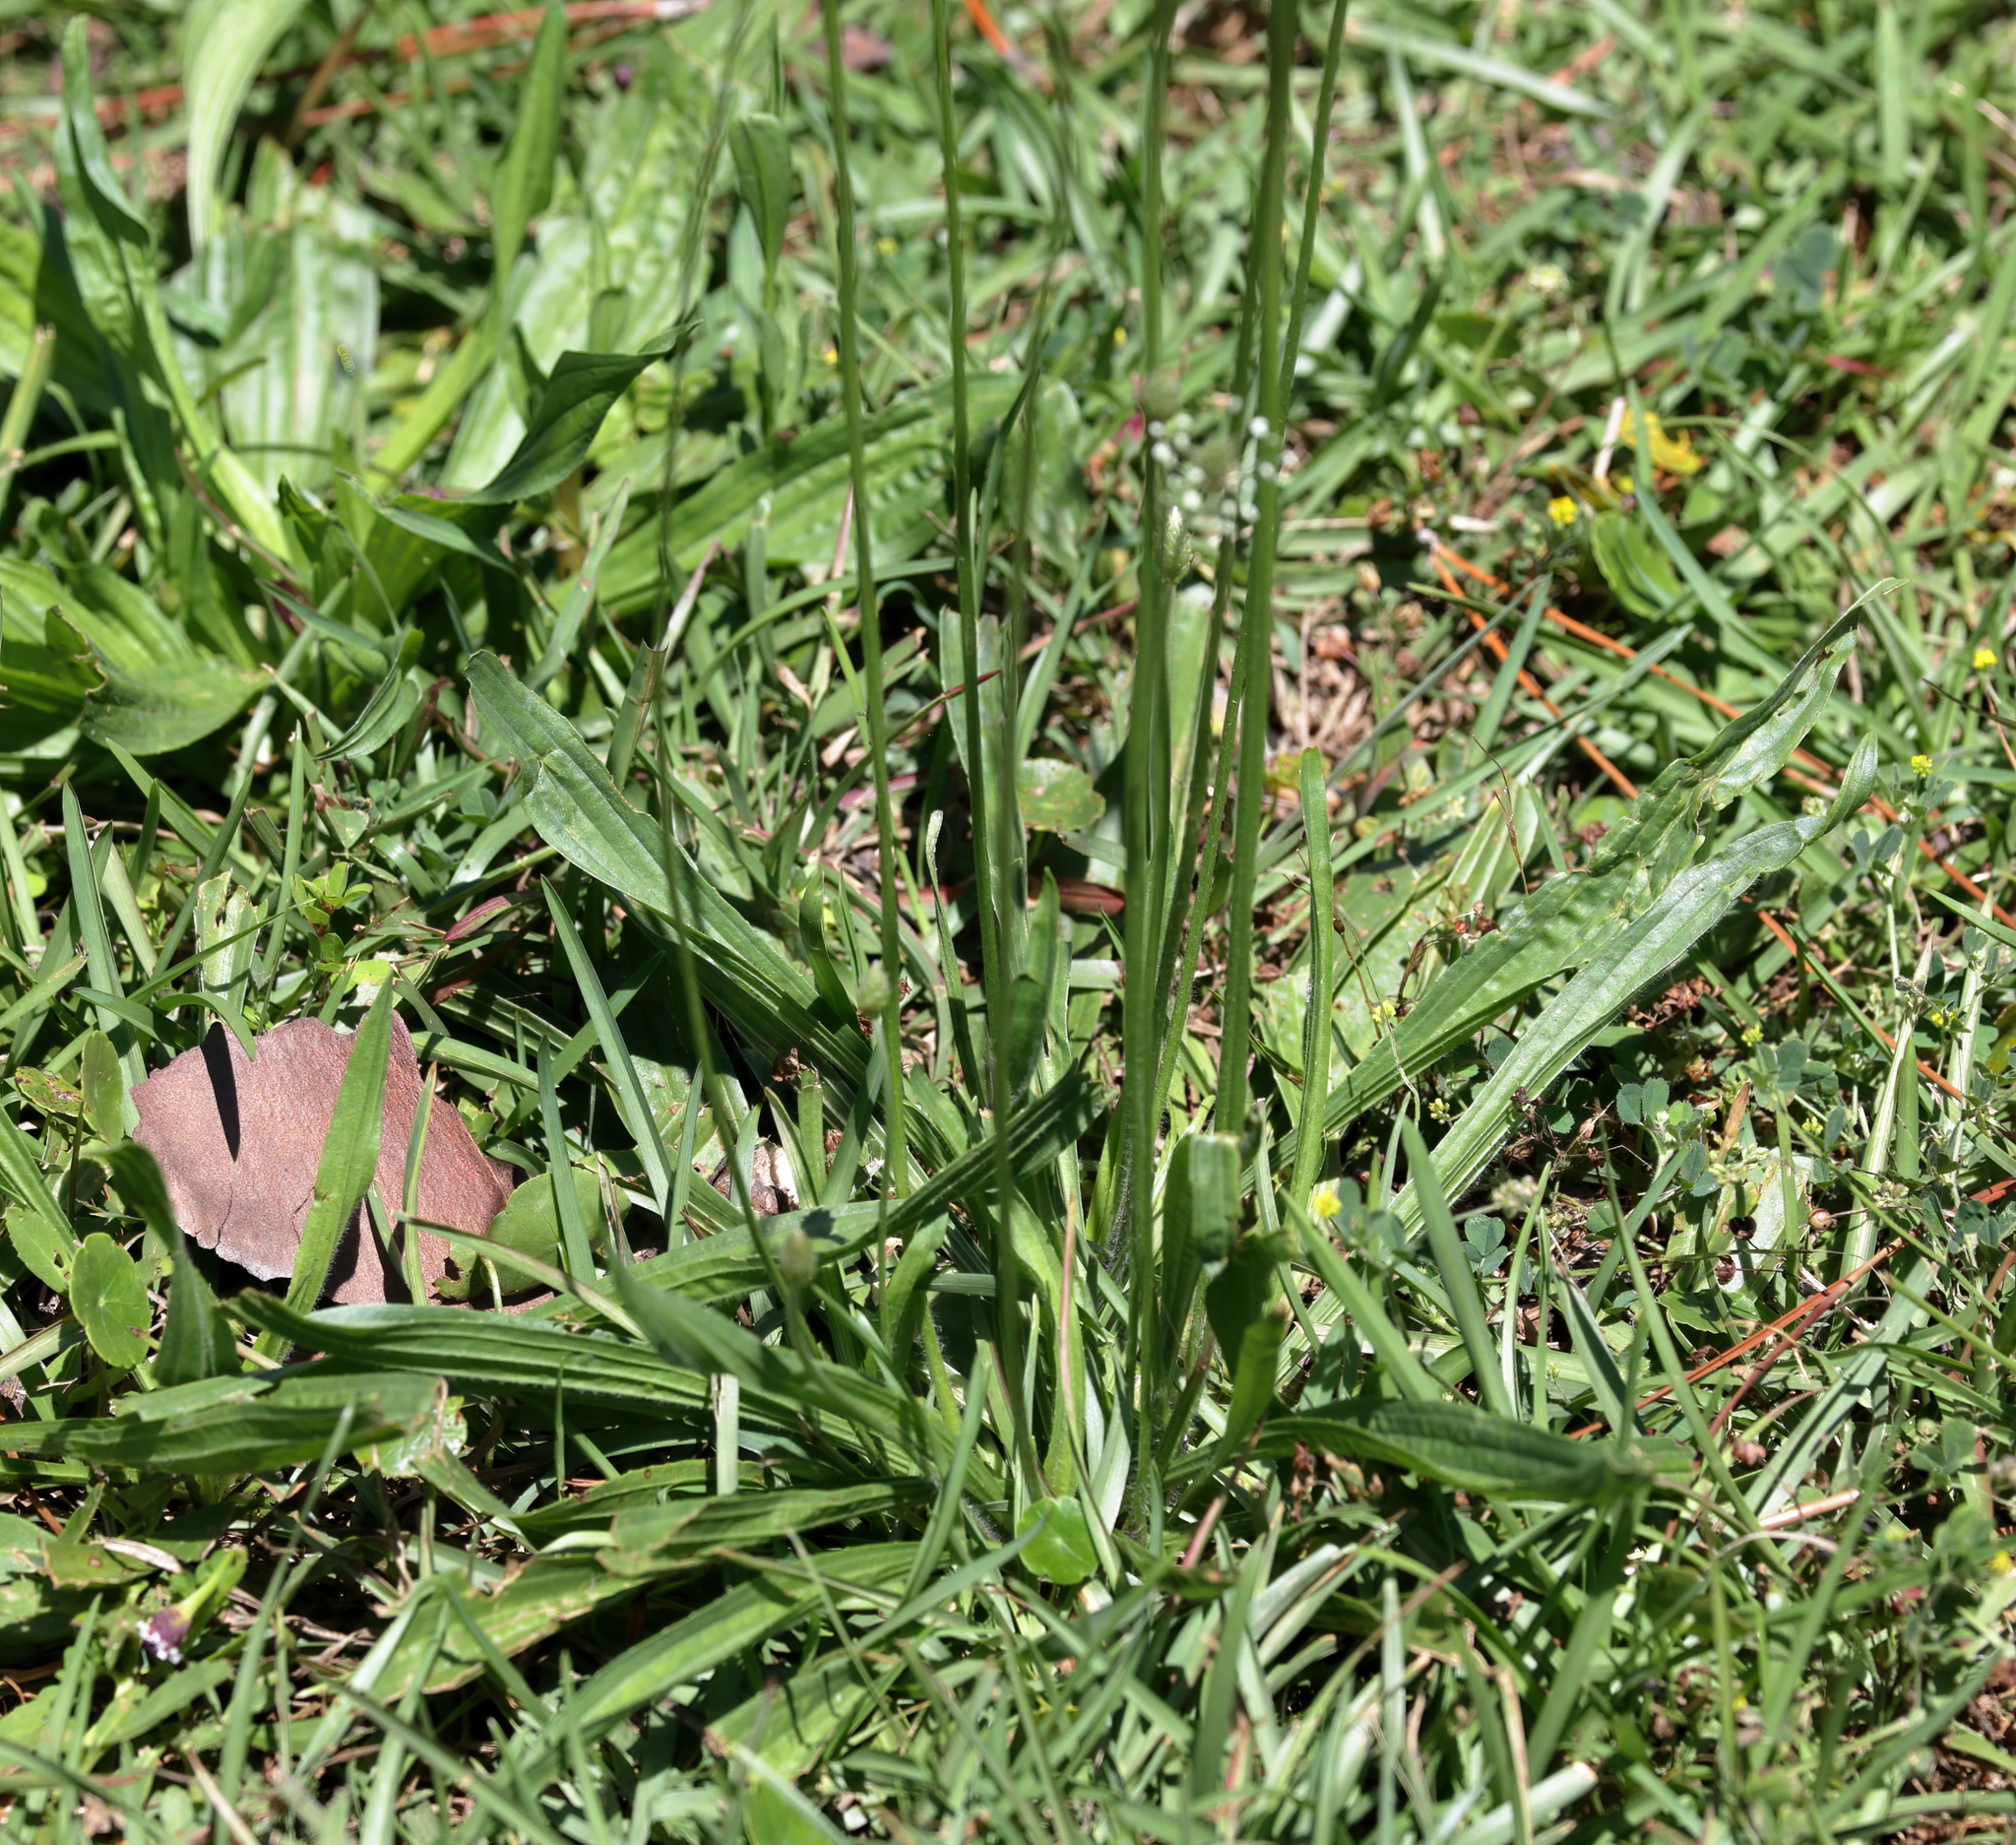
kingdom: Plantae
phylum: Tracheophyta
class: Magnoliopsida
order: Lamiales
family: Plantaginaceae
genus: Plantago
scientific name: Plantago lanceolata
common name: Ribwort plantain
